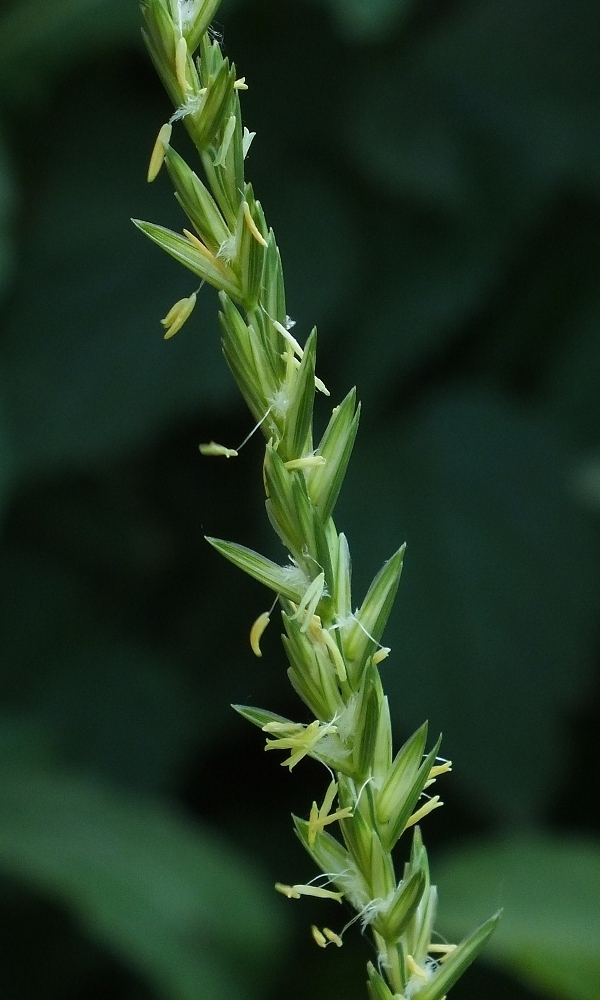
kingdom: Plantae
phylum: Tracheophyta
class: Liliopsida
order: Poales
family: Poaceae
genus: Elymus
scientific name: Elymus repens
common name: Quackgrass
